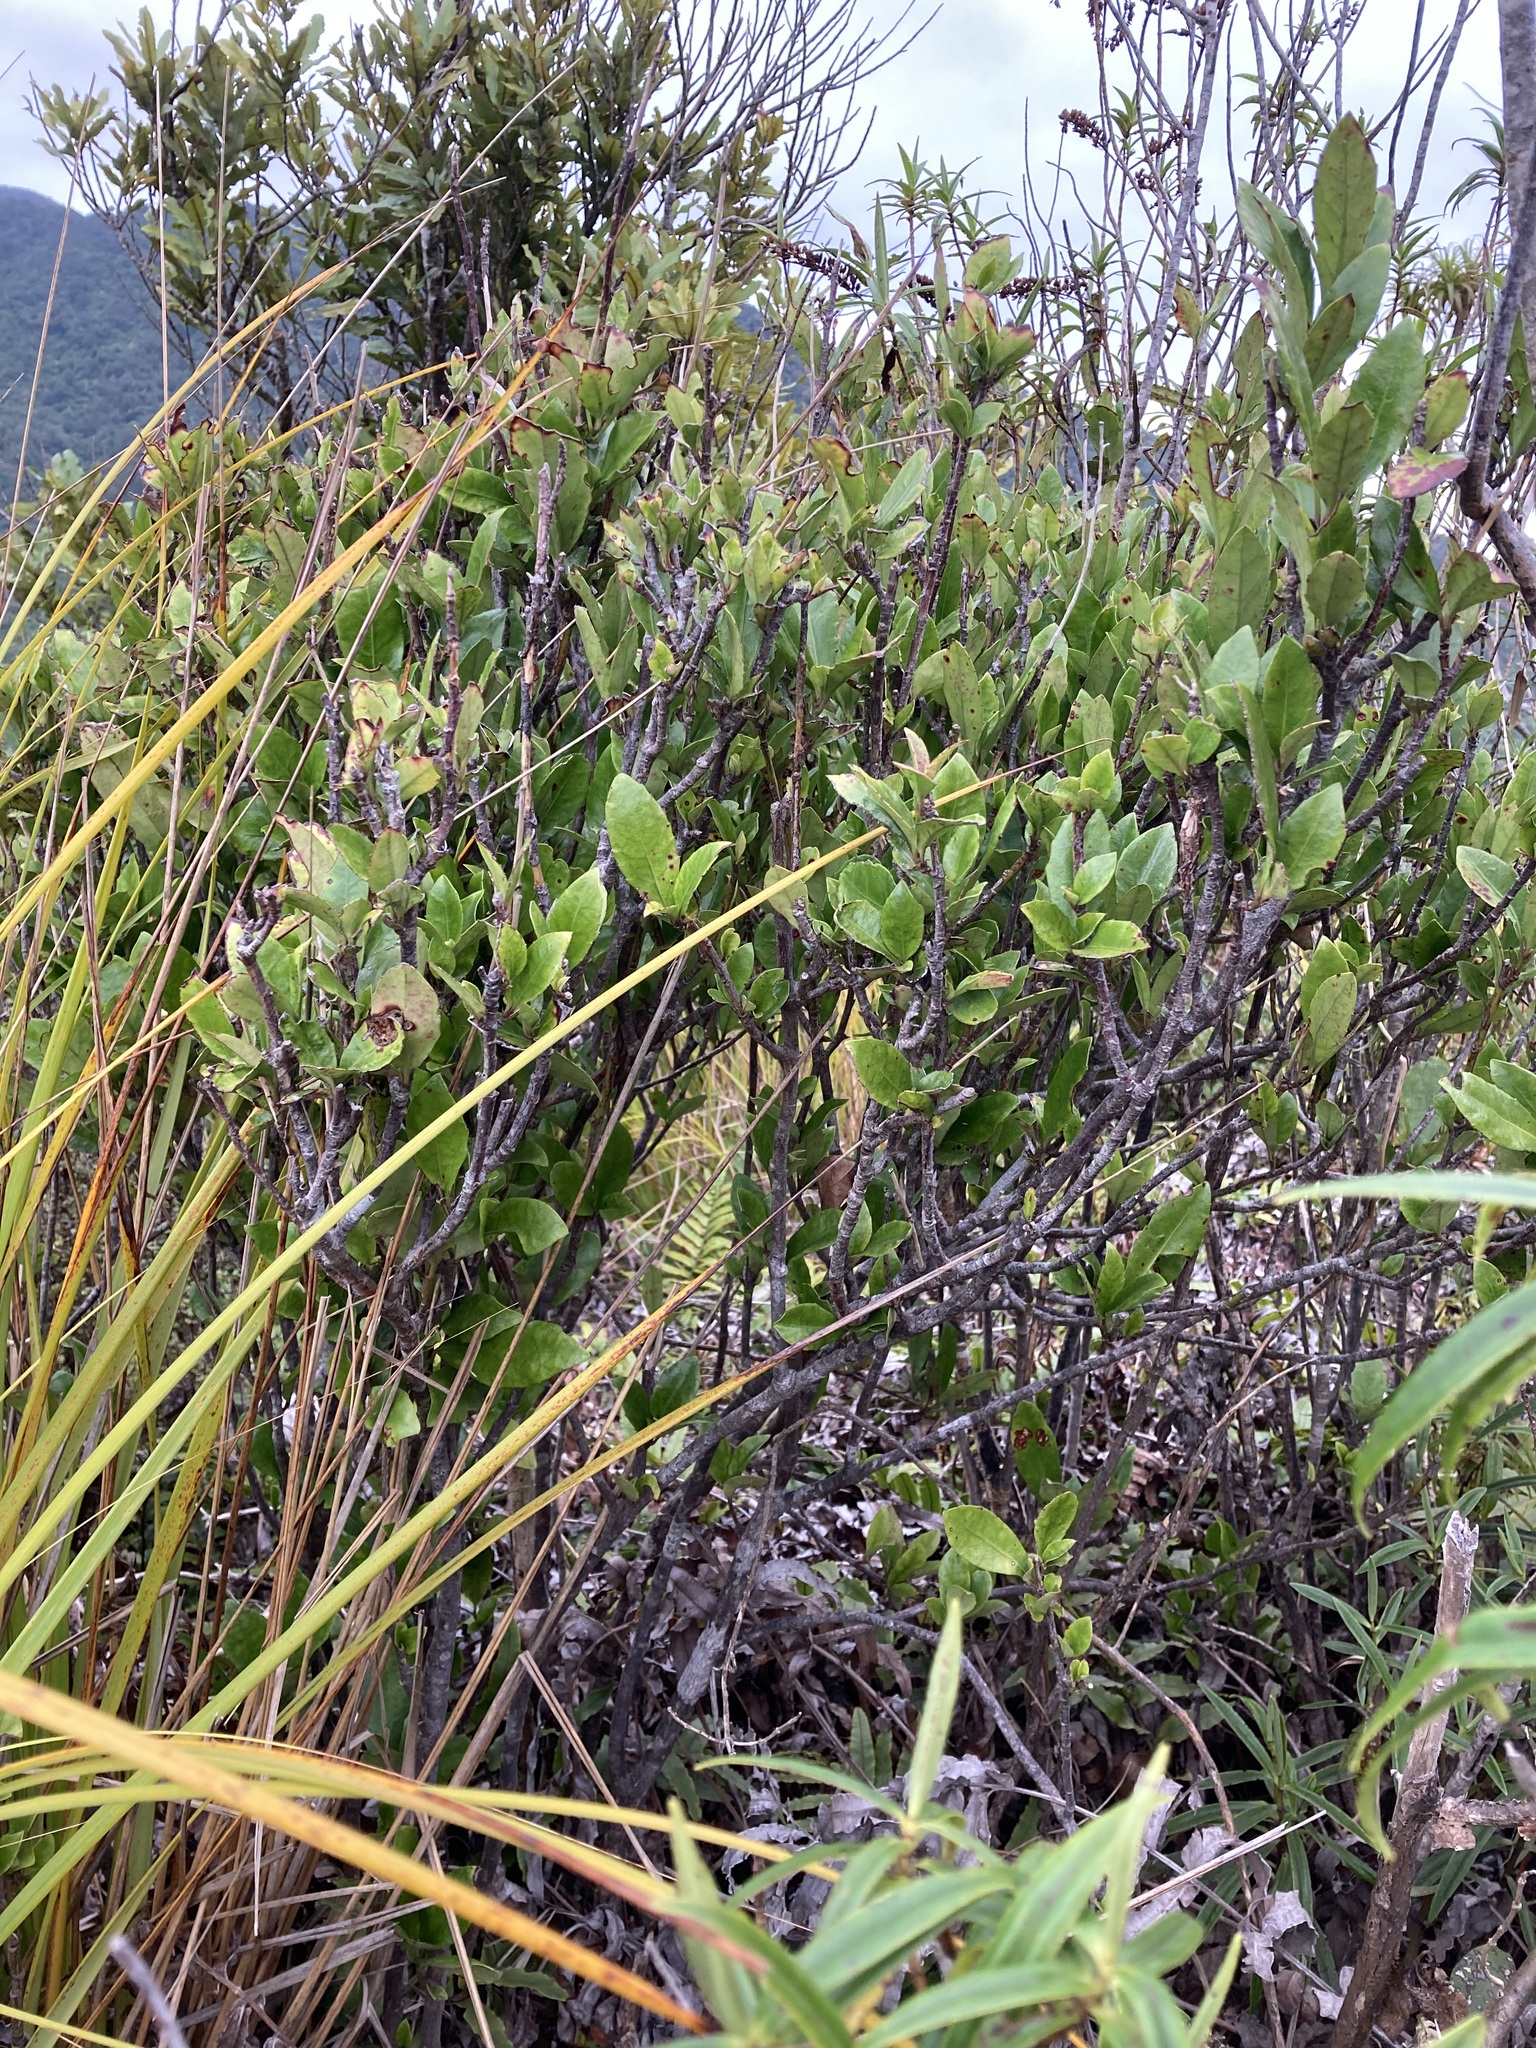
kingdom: Plantae
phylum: Tracheophyta
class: Magnoliopsida
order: Asterales
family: Alseuosmiaceae
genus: Alseuosmia
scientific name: Alseuosmia macrophylla
